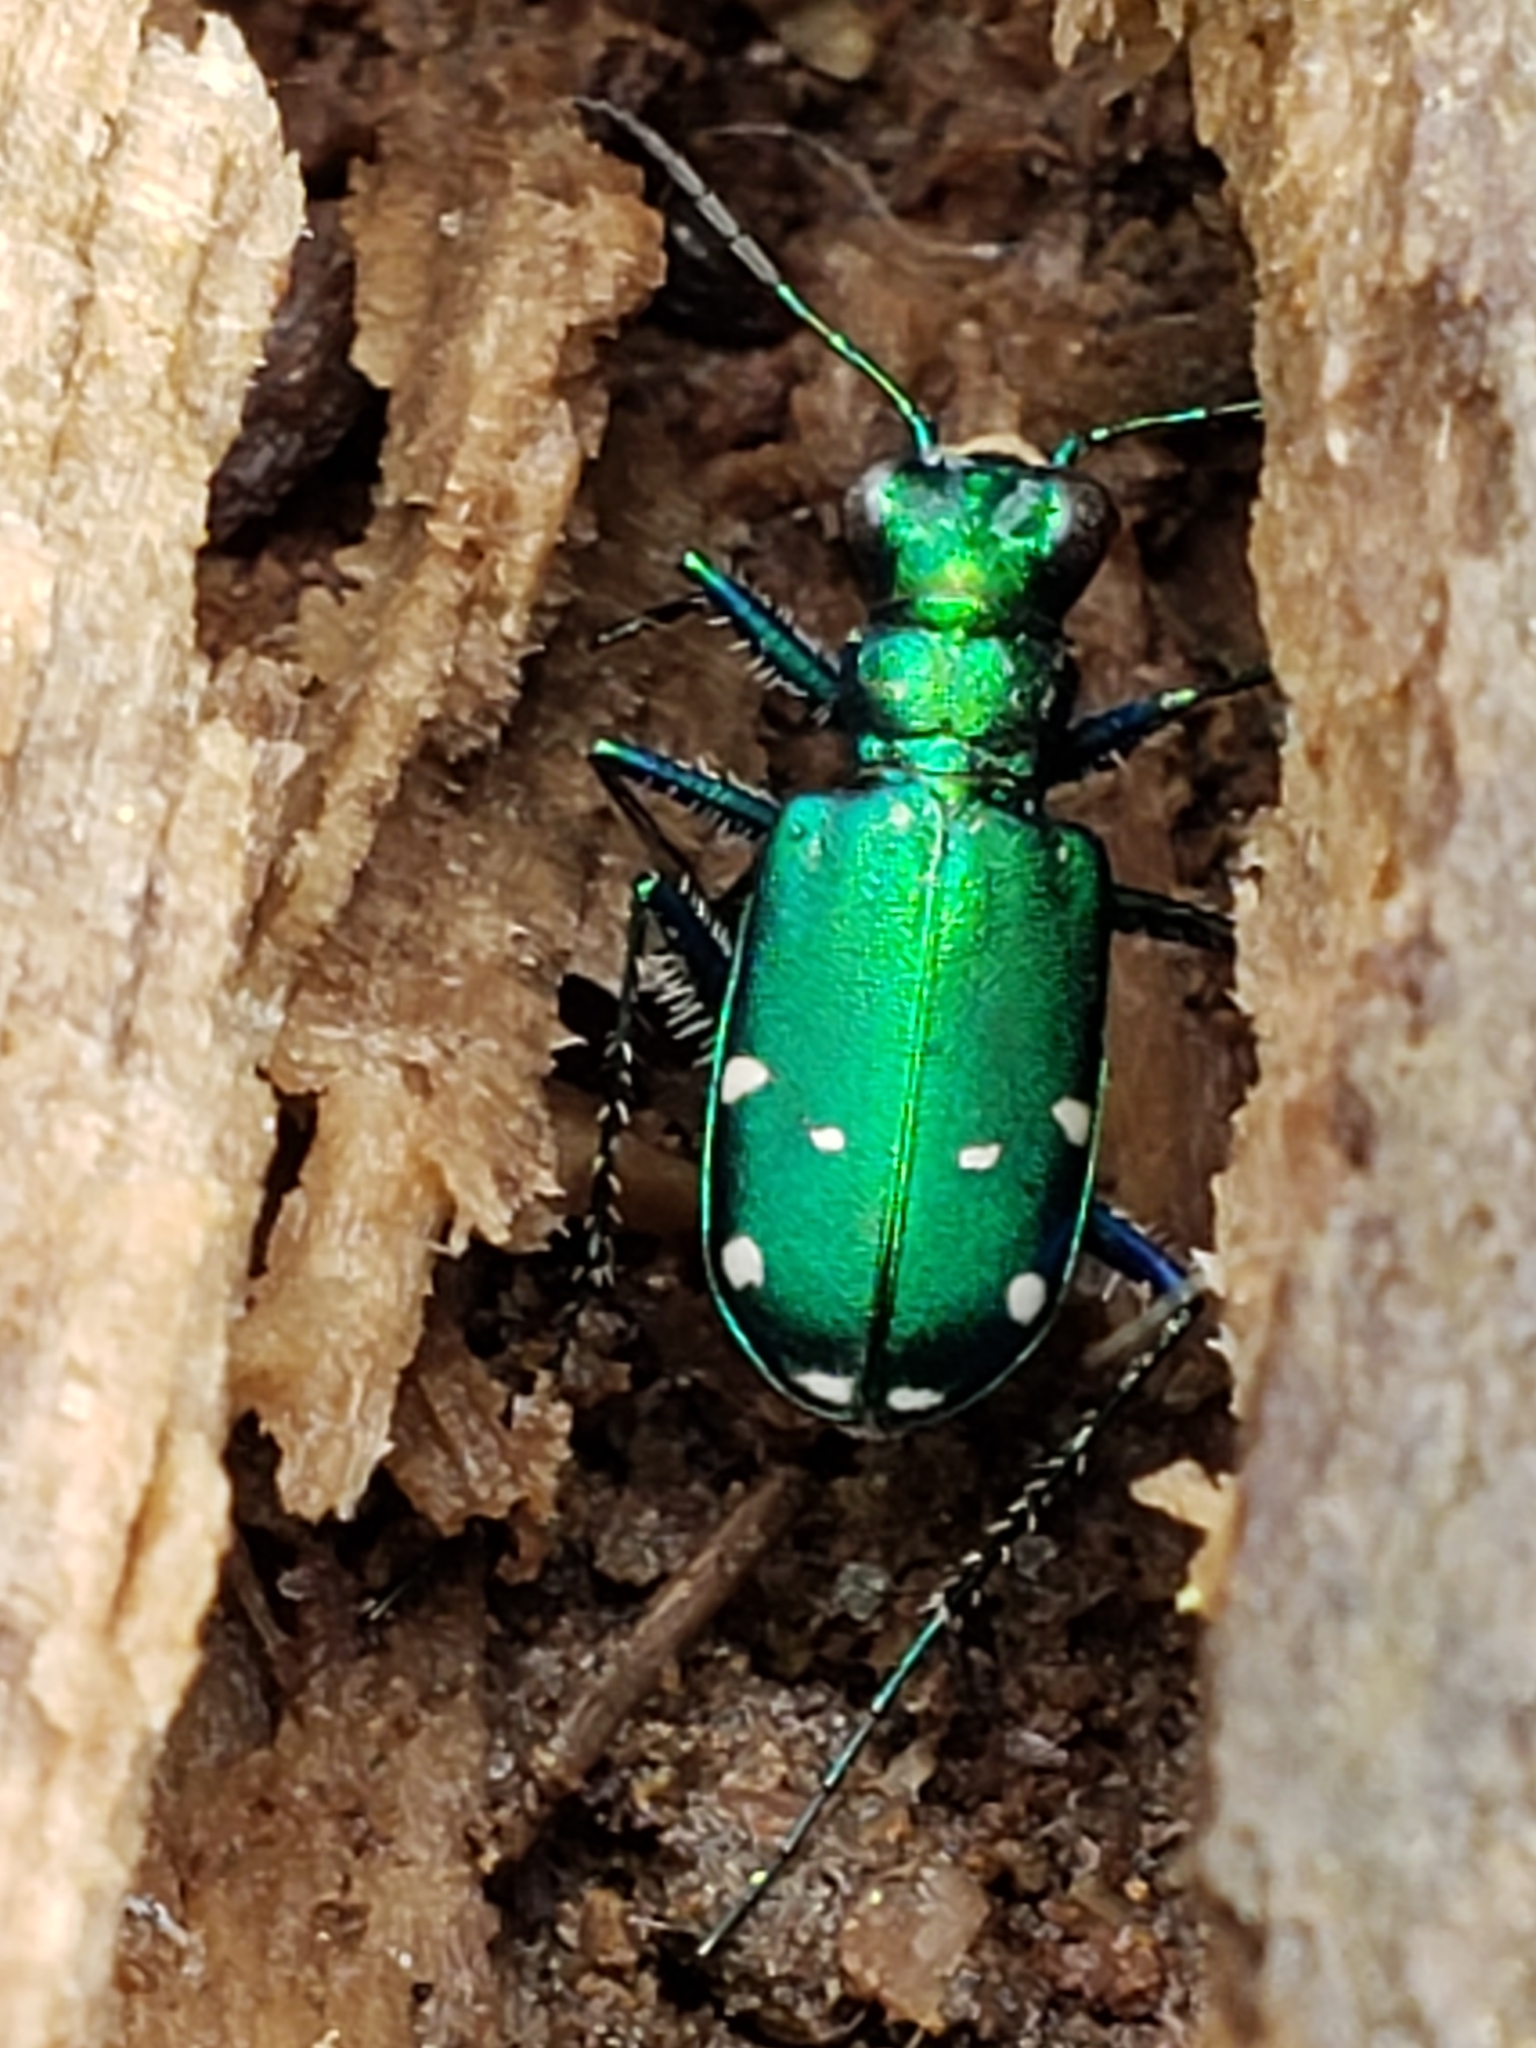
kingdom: Animalia
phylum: Arthropoda
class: Insecta
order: Coleoptera
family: Carabidae
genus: Cicindela
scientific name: Cicindela sexguttata
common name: Six-spotted tiger beetle
